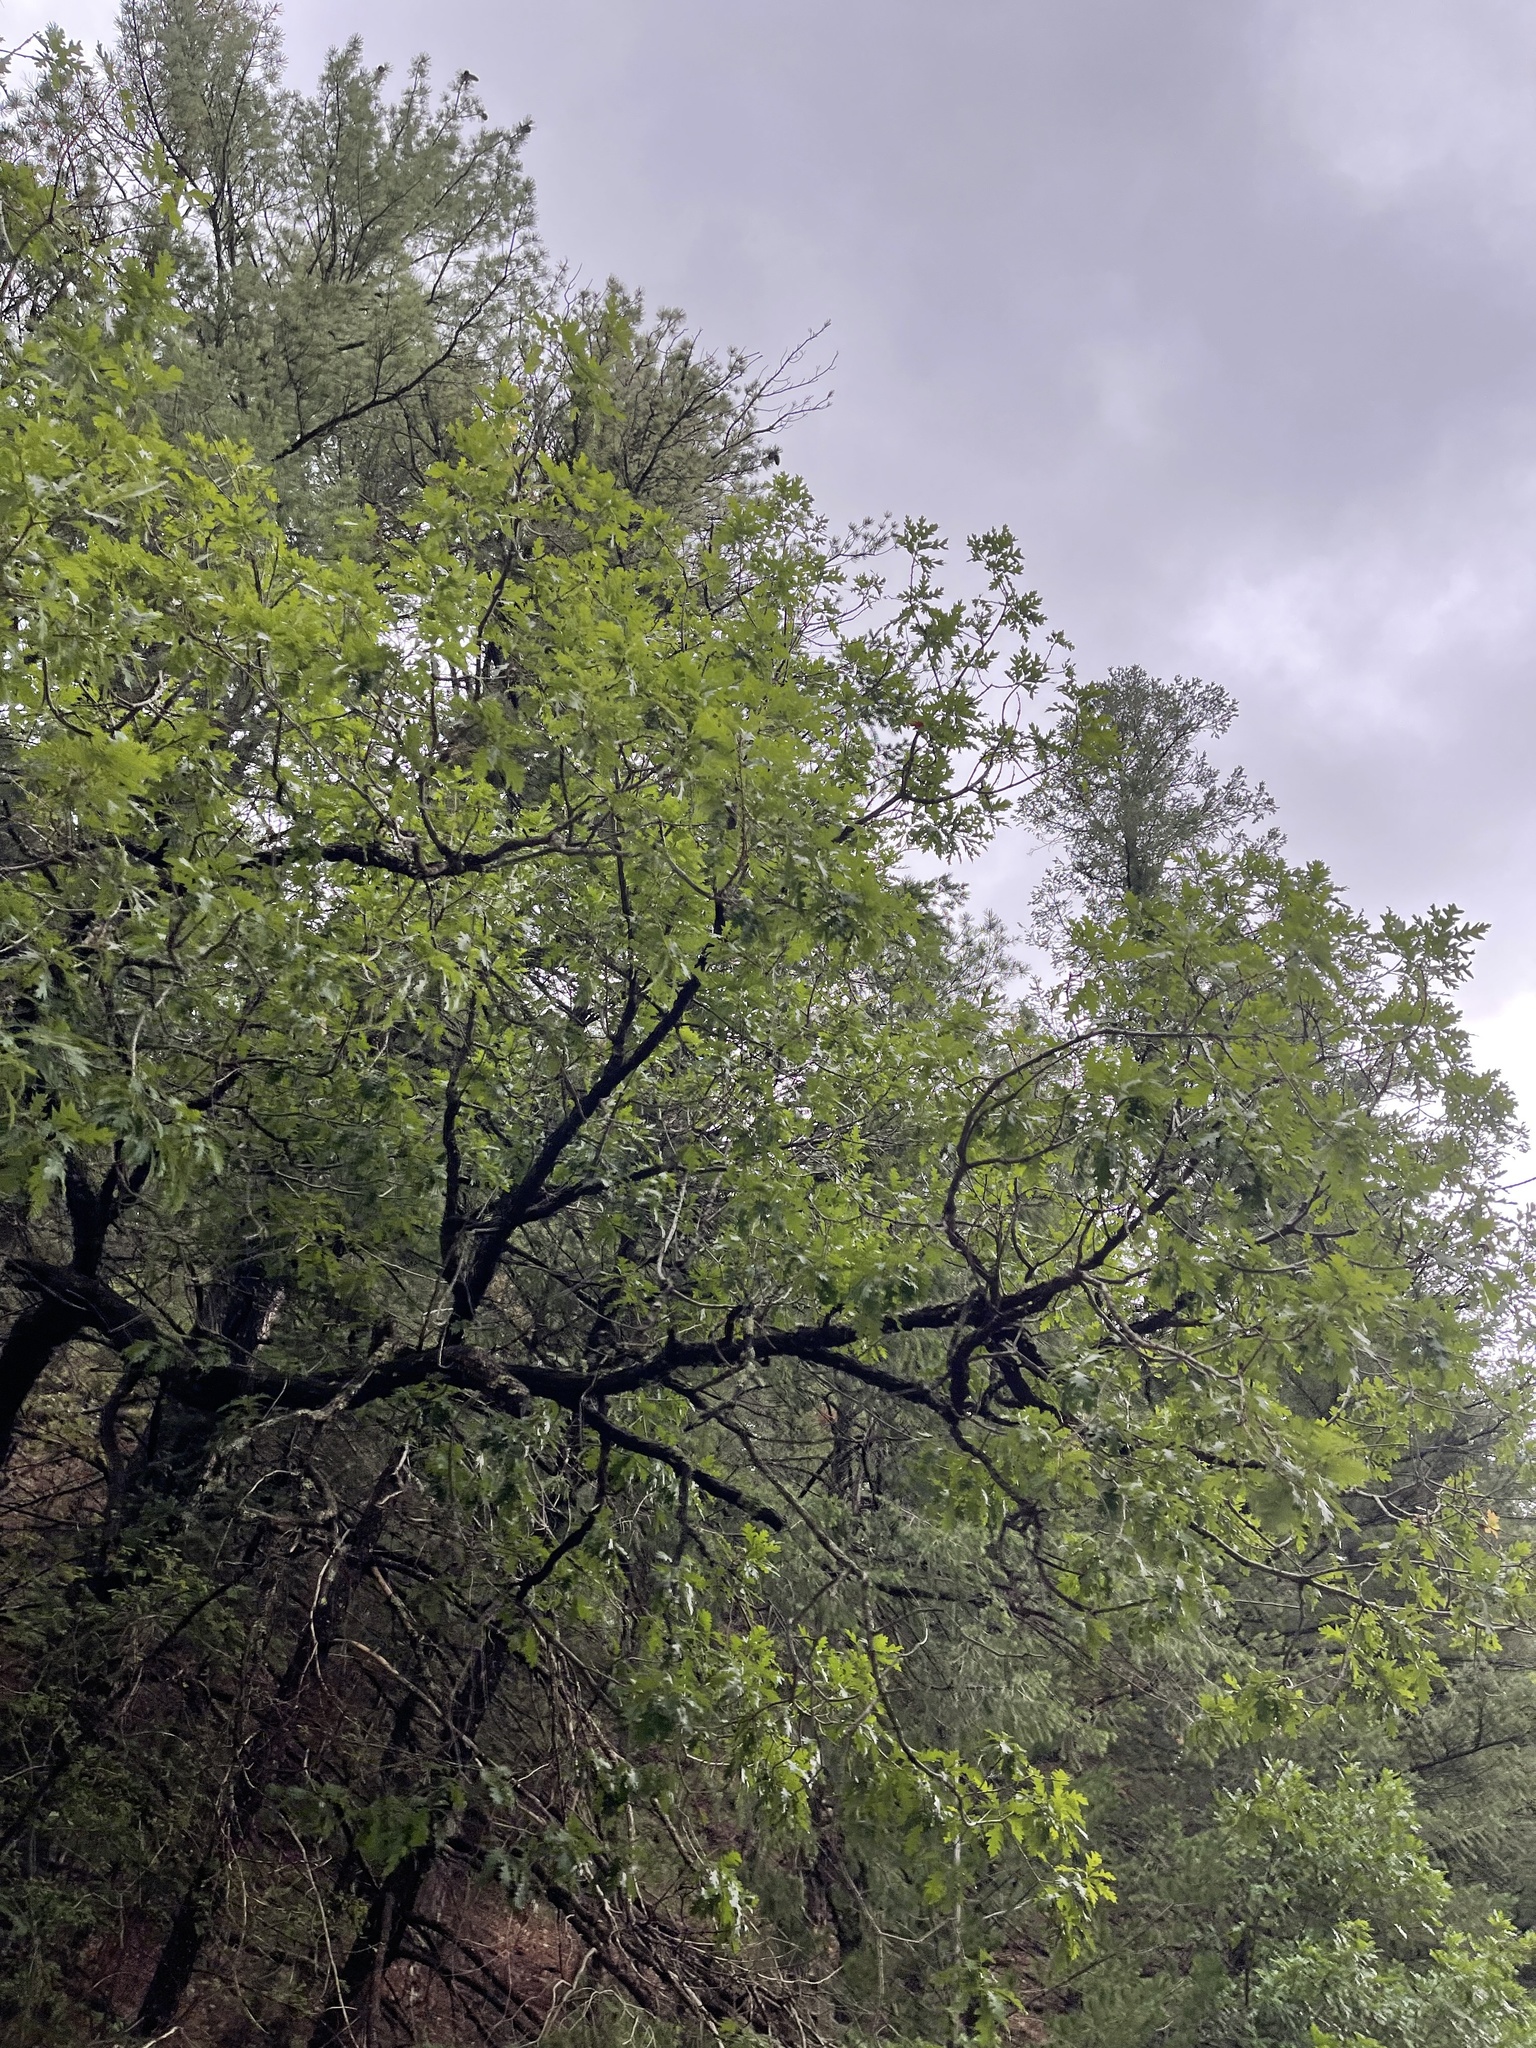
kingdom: Plantae
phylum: Tracheophyta
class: Magnoliopsida
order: Sapindales
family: Sapindaceae
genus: Acer
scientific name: Acer negundo
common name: Ashleaf maple
